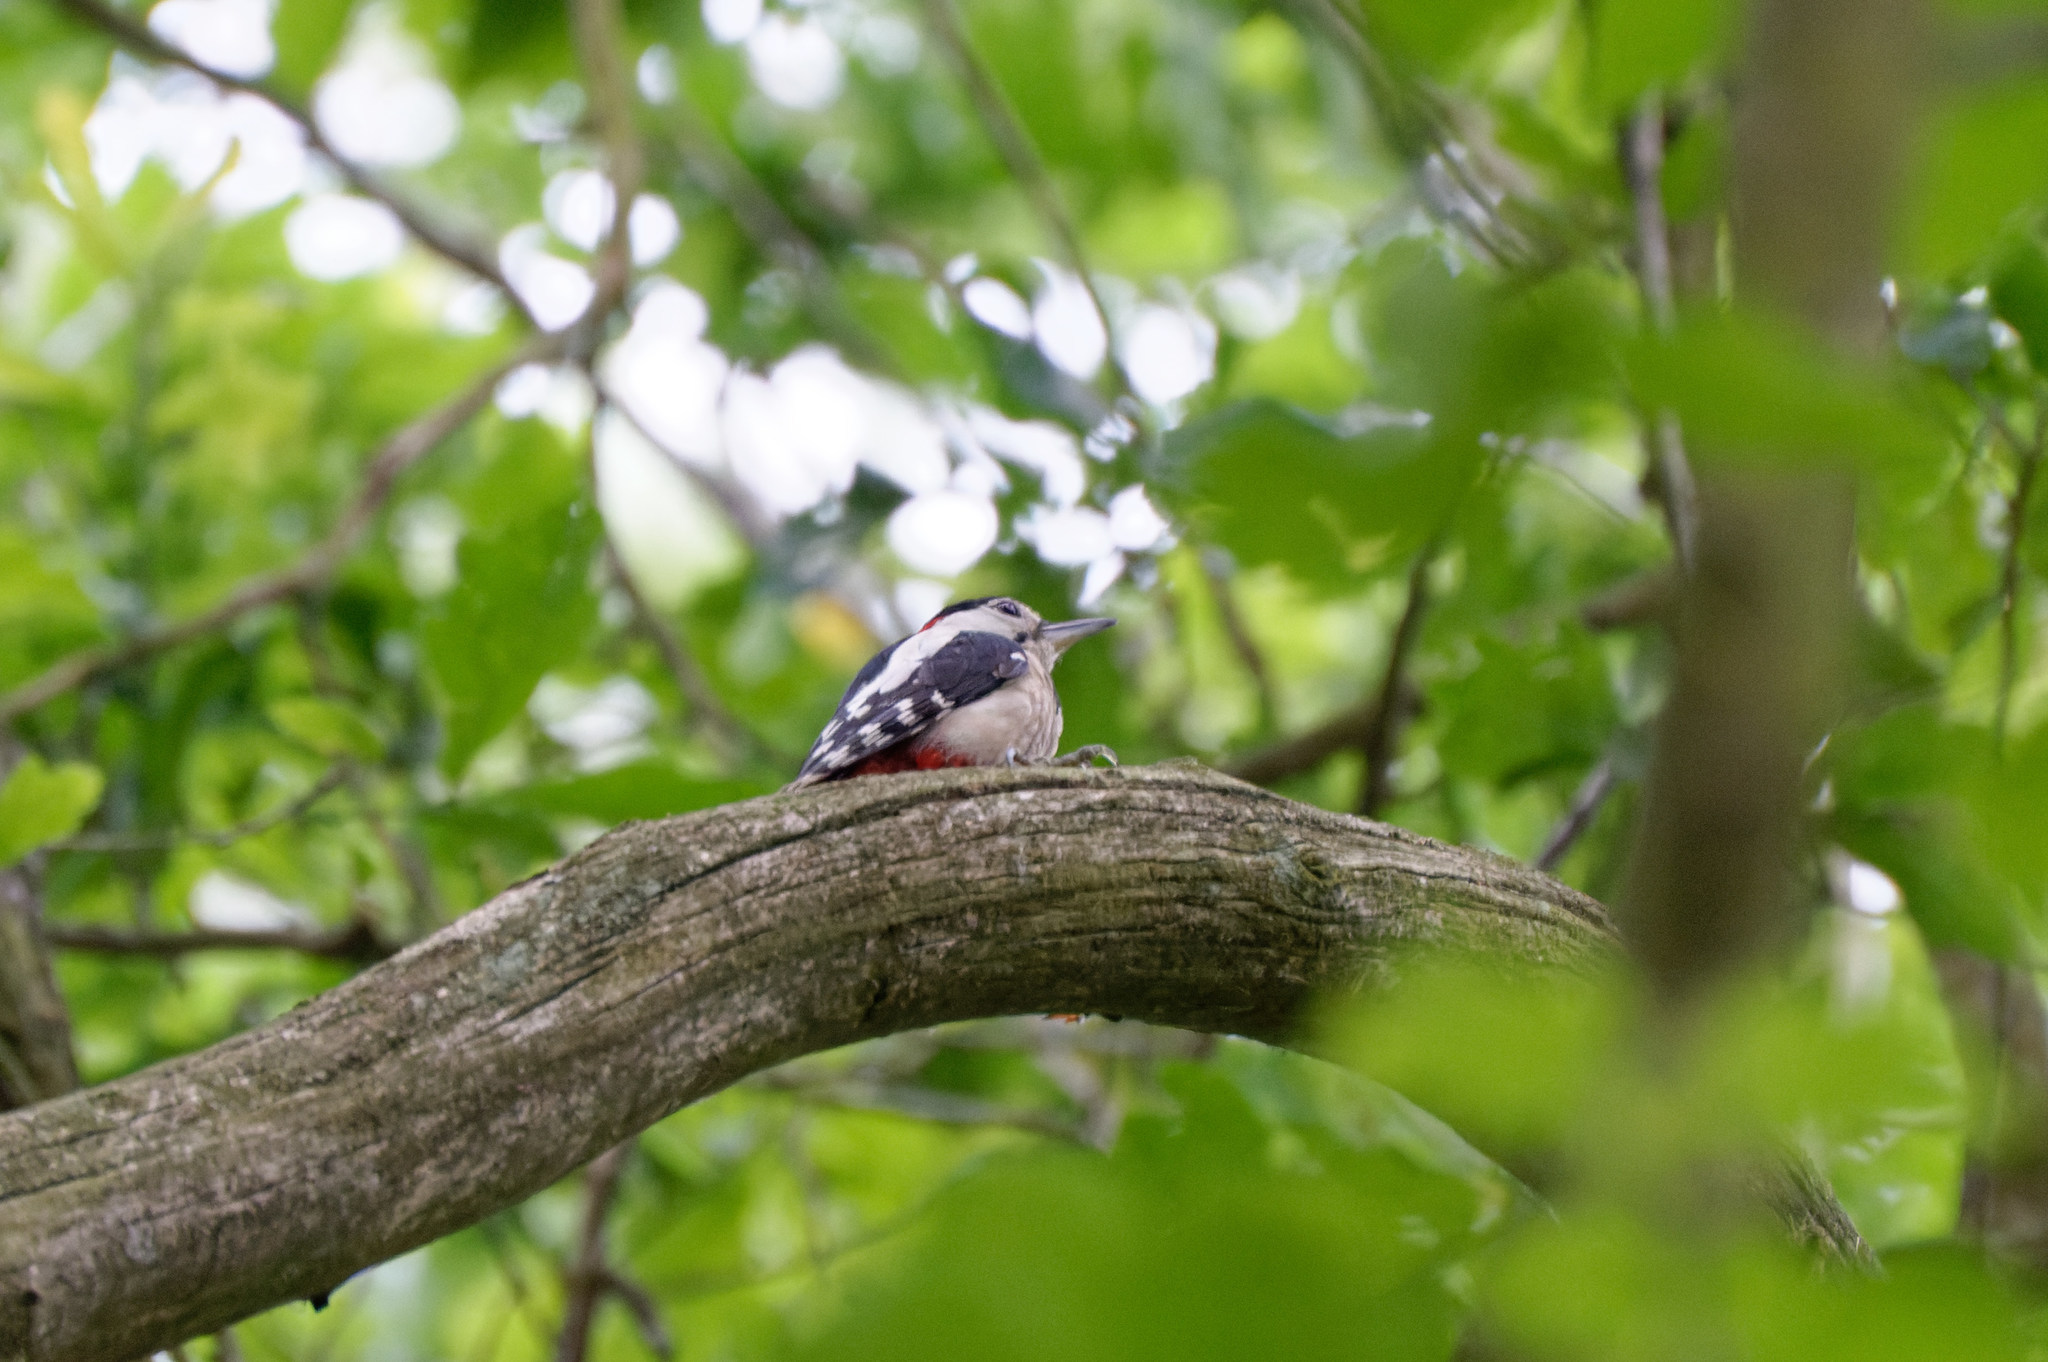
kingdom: Animalia
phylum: Chordata
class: Aves
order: Piciformes
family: Picidae
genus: Dendrocopos
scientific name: Dendrocopos major
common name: Great spotted woodpecker
